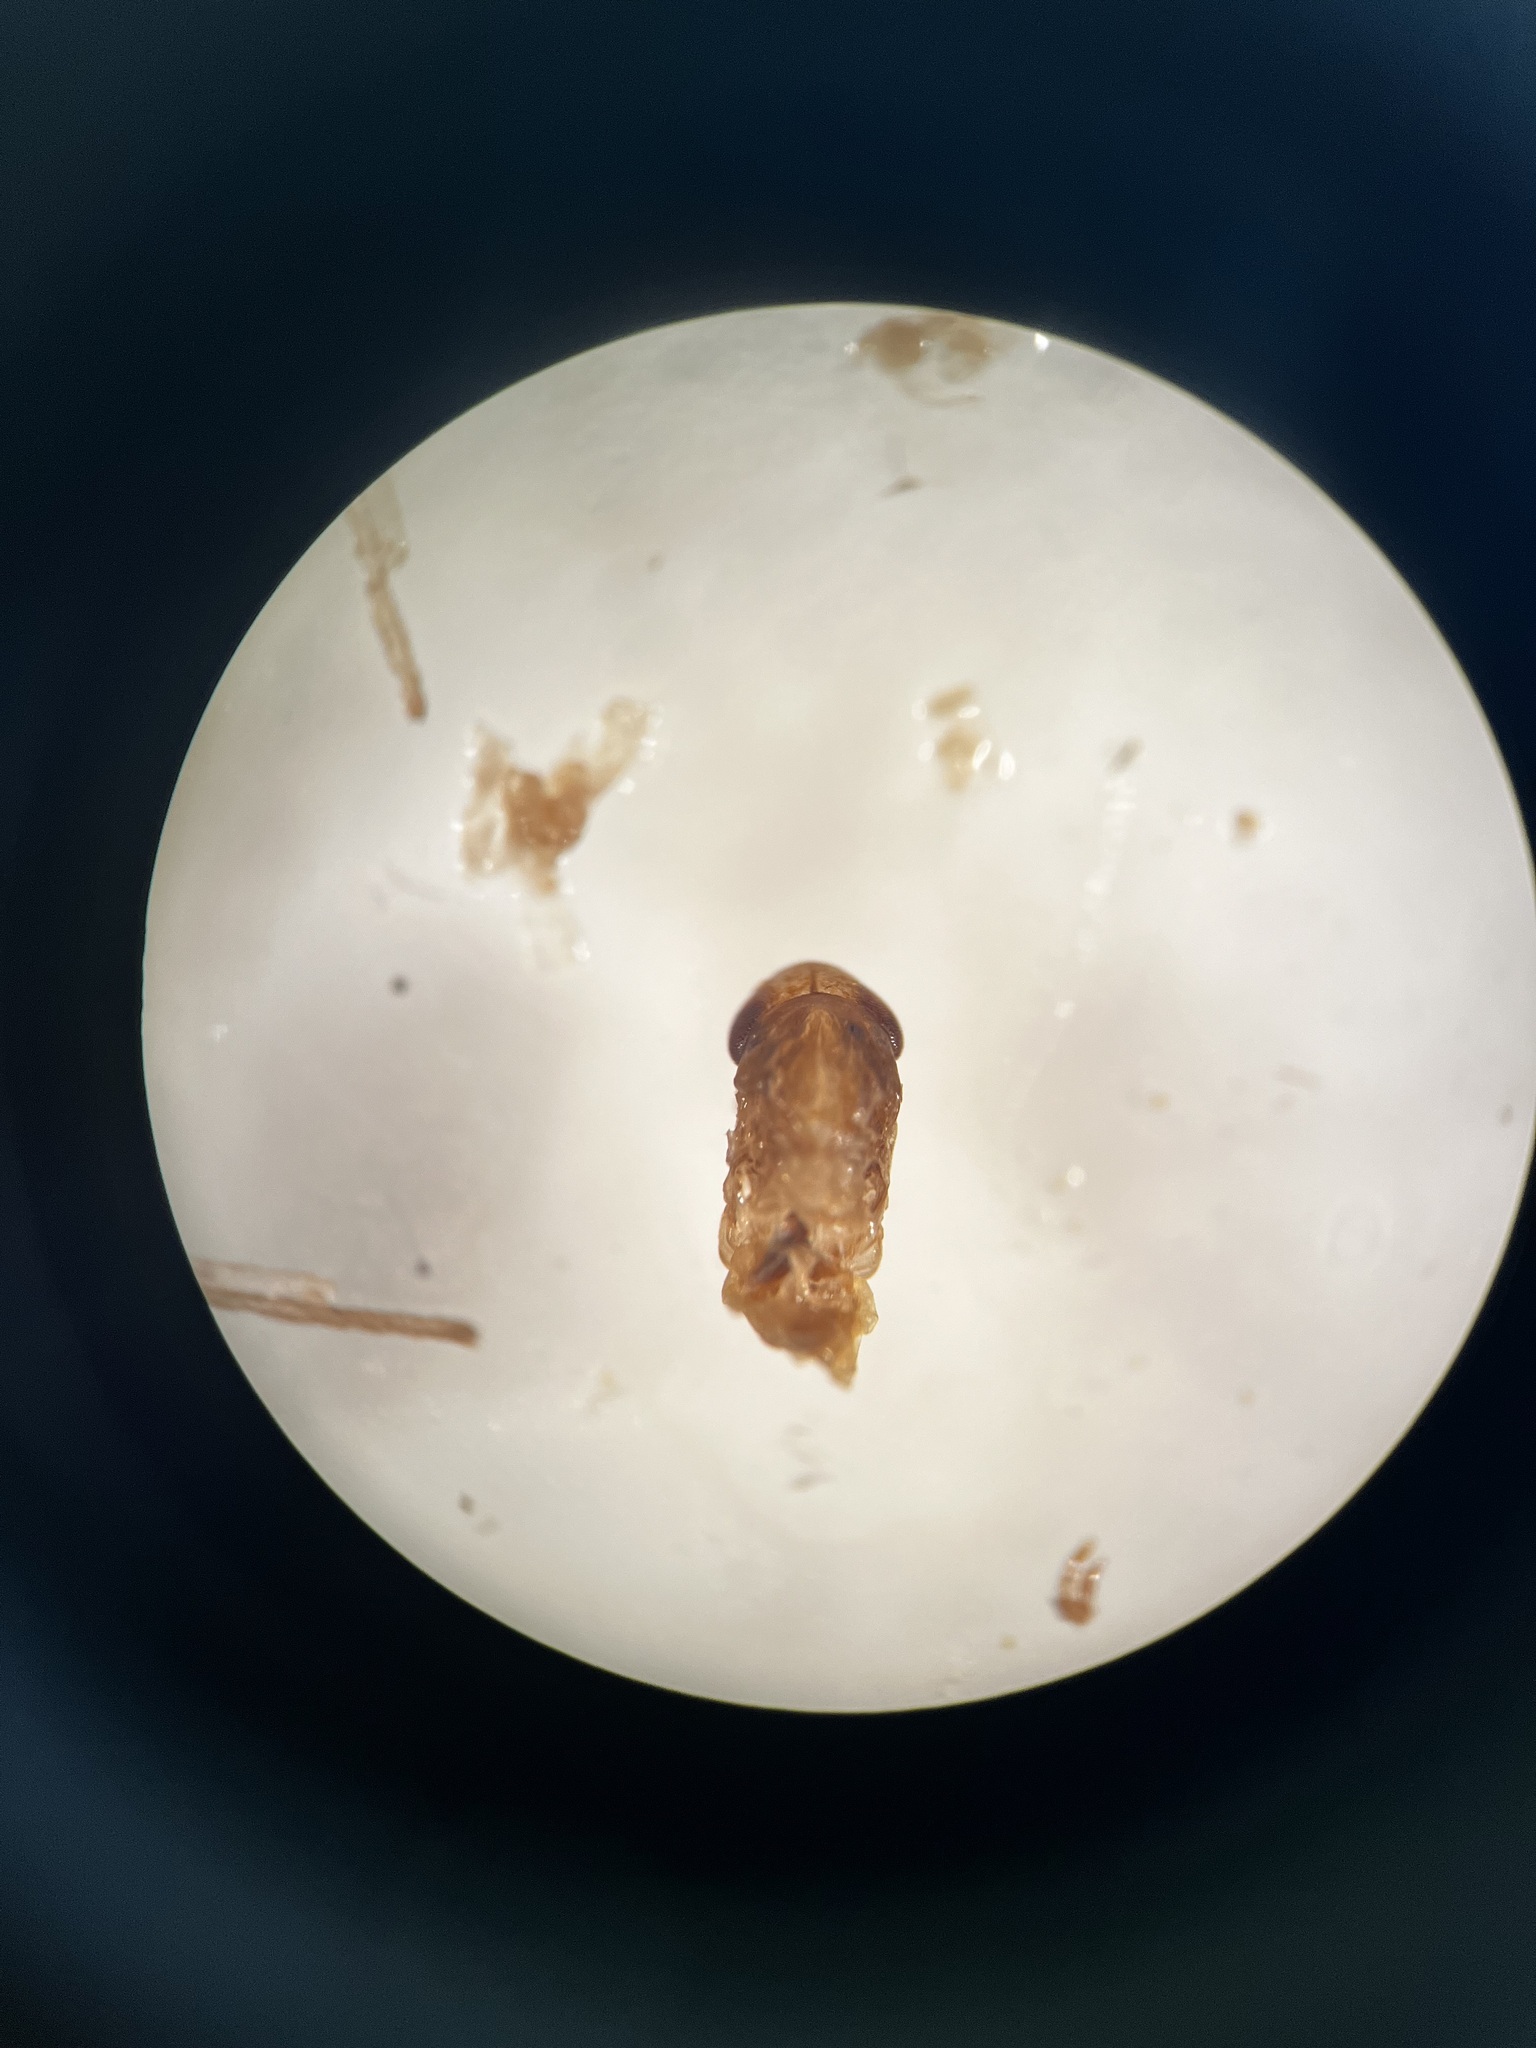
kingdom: Animalia
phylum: Arthropoda
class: Insecta
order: Hemiptera
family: Cicadellidae
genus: Hebata
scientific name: Hebata vitis
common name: The smaller green leafhopper
